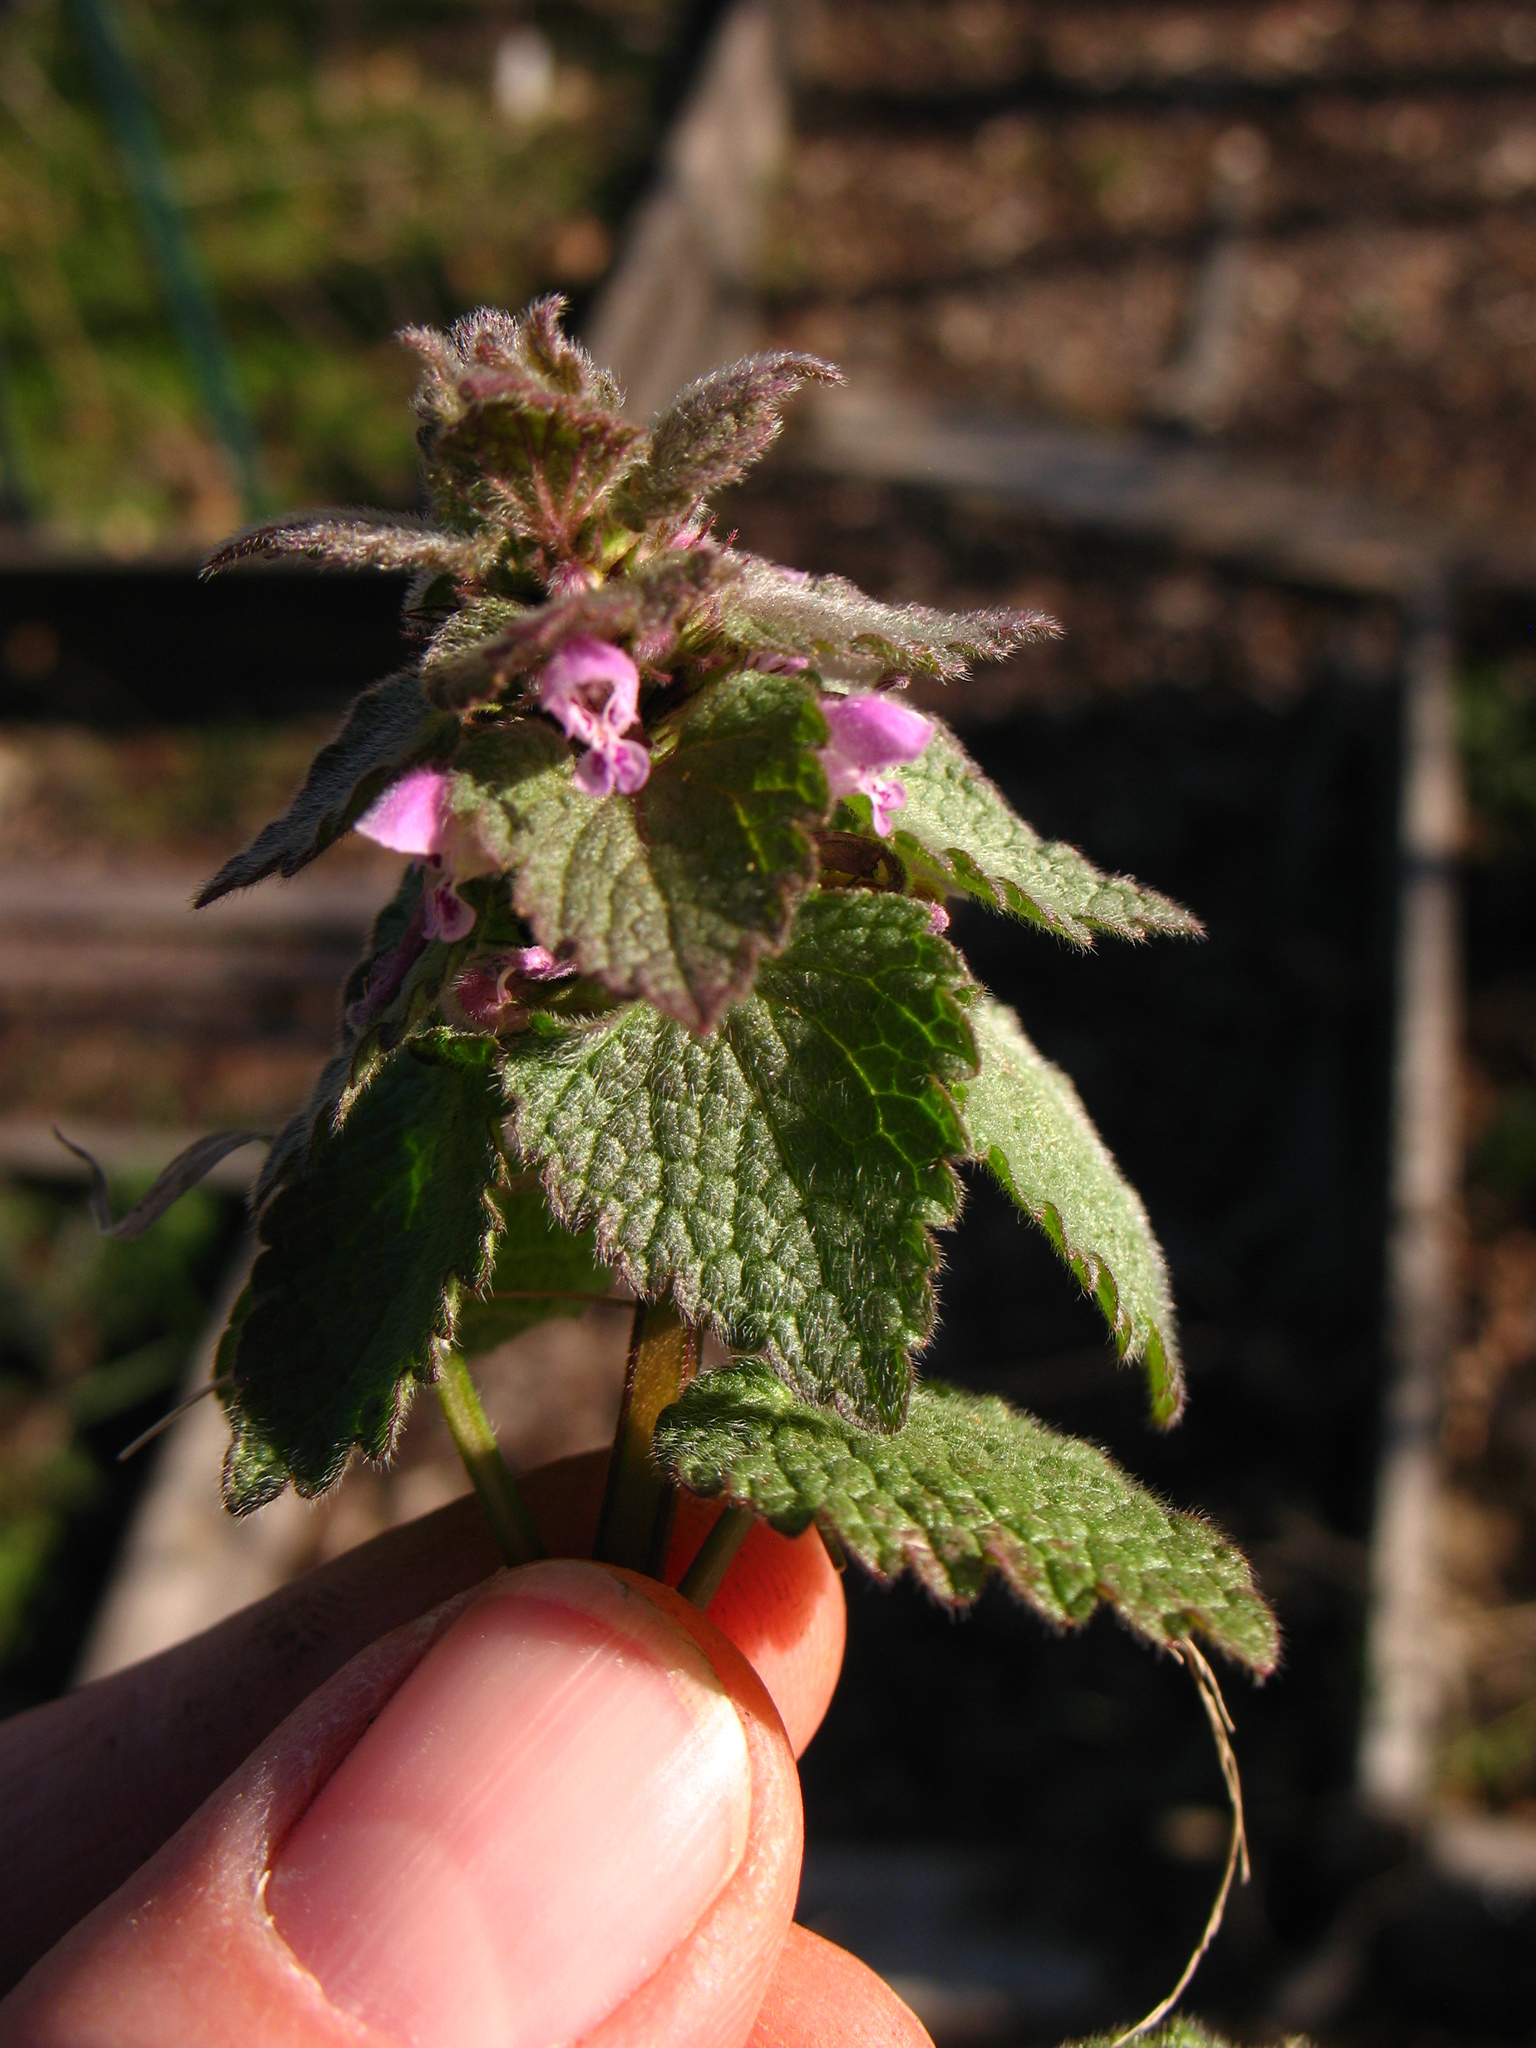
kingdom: Plantae
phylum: Tracheophyta
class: Magnoliopsida
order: Lamiales
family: Lamiaceae
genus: Lamium
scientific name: Lamium purpureum
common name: Red dead-nettle
